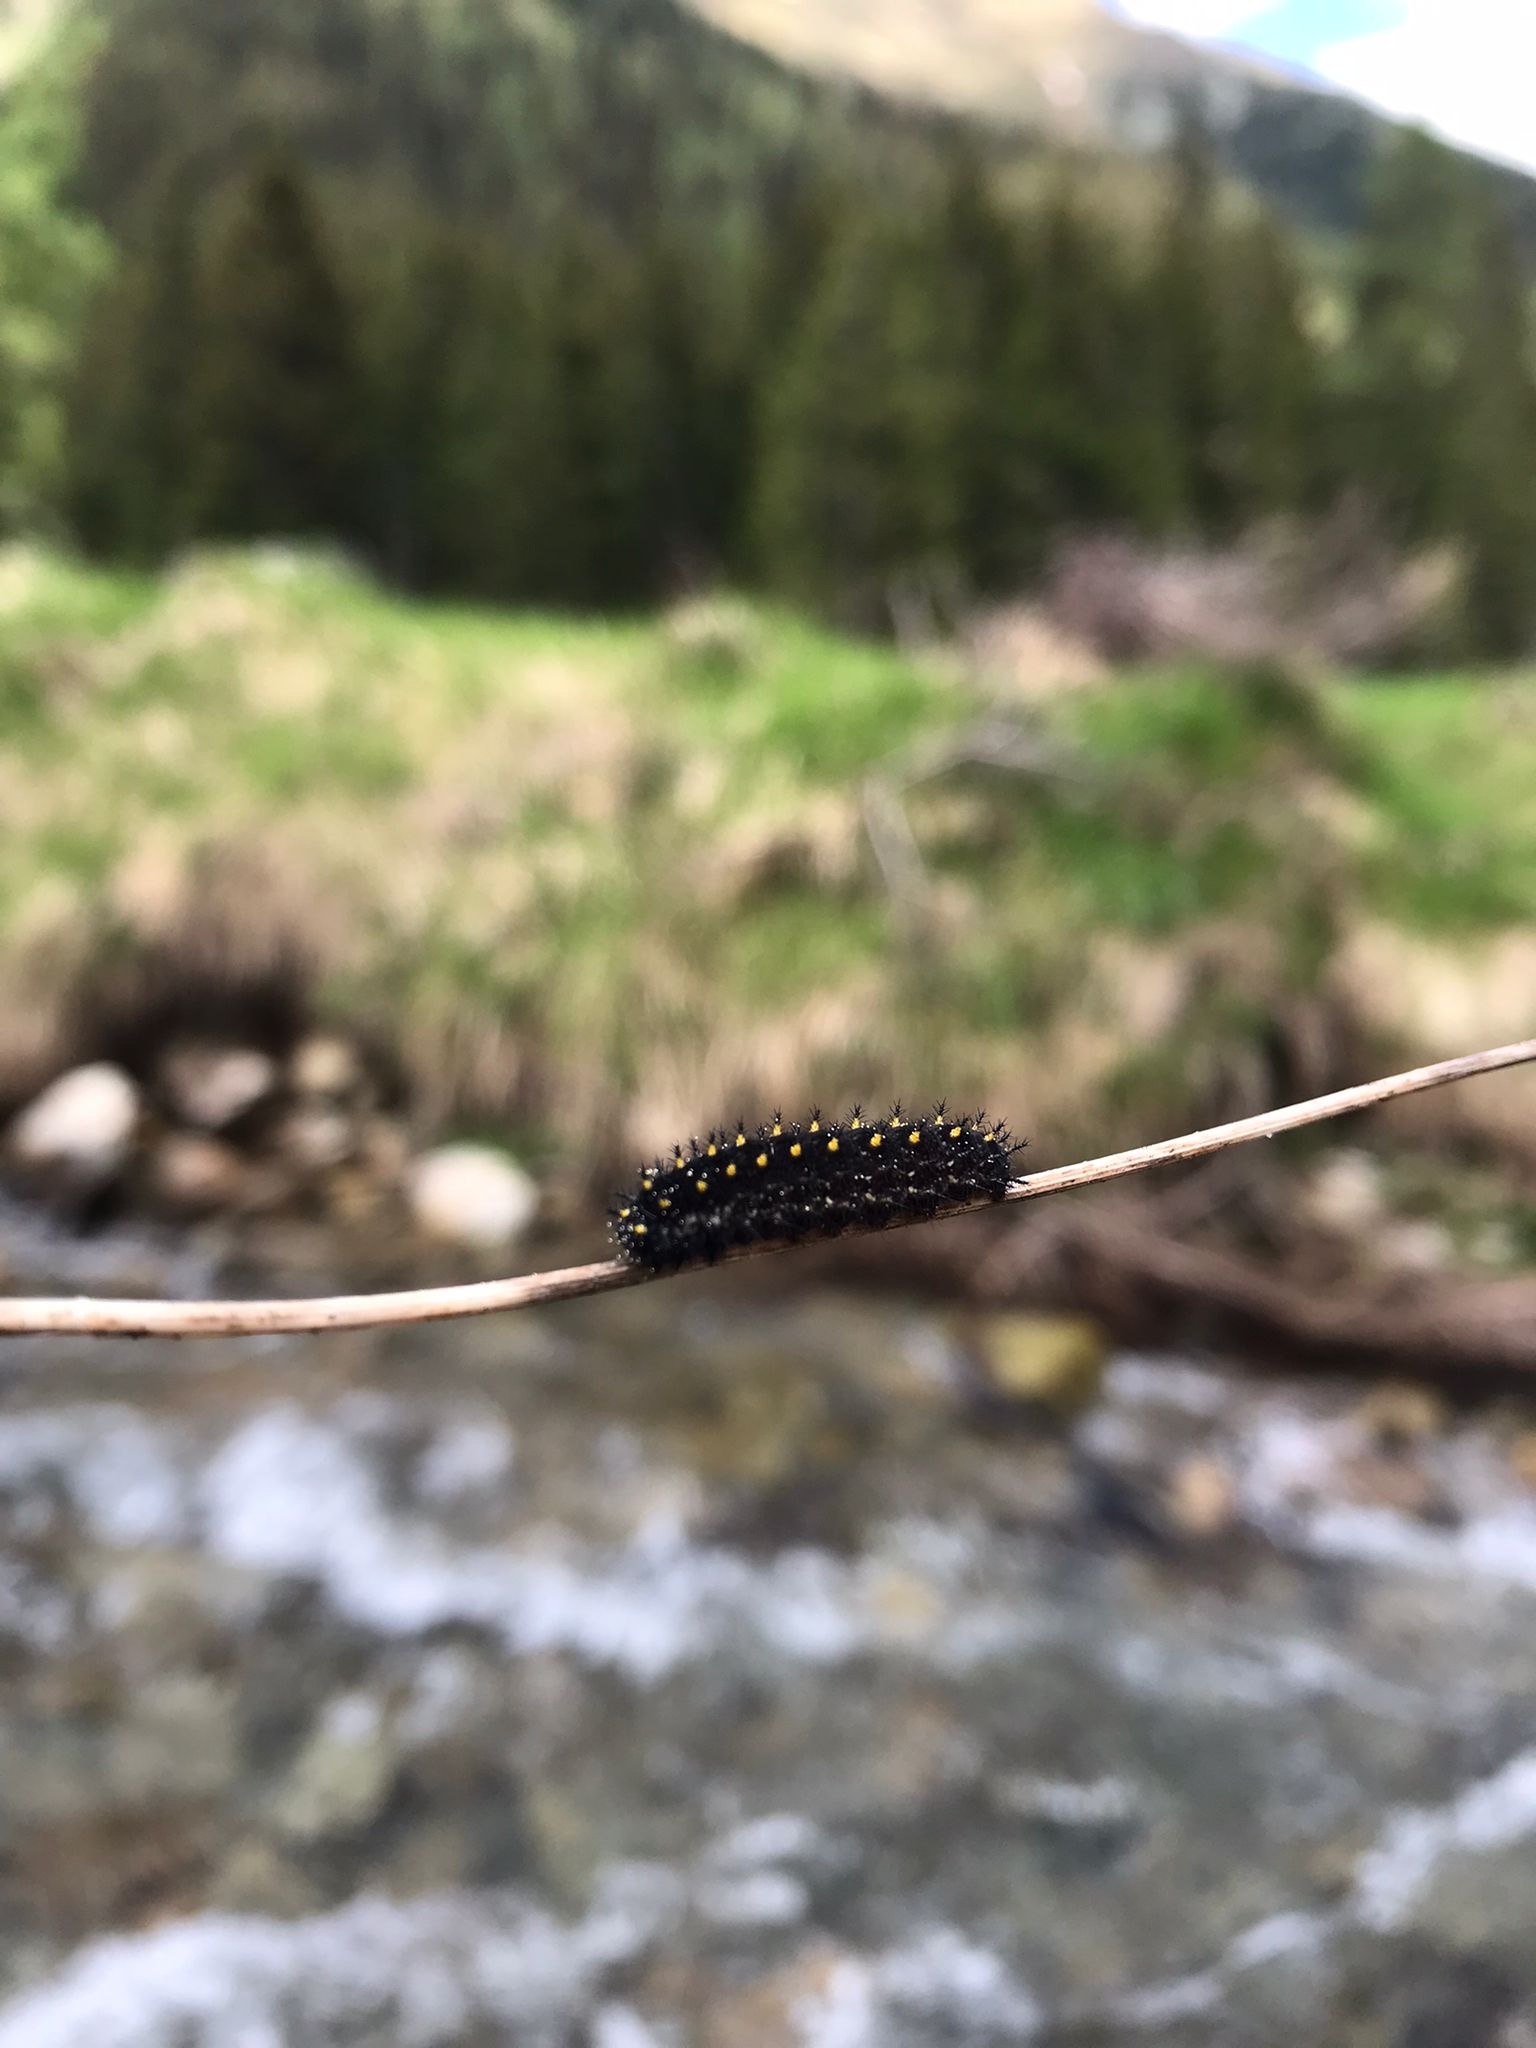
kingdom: Animalia
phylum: Arthropoda
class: Insecta
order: Lepidoptera
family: Nymphalidae
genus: Clossiana
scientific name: Clossiana euphrosyne
